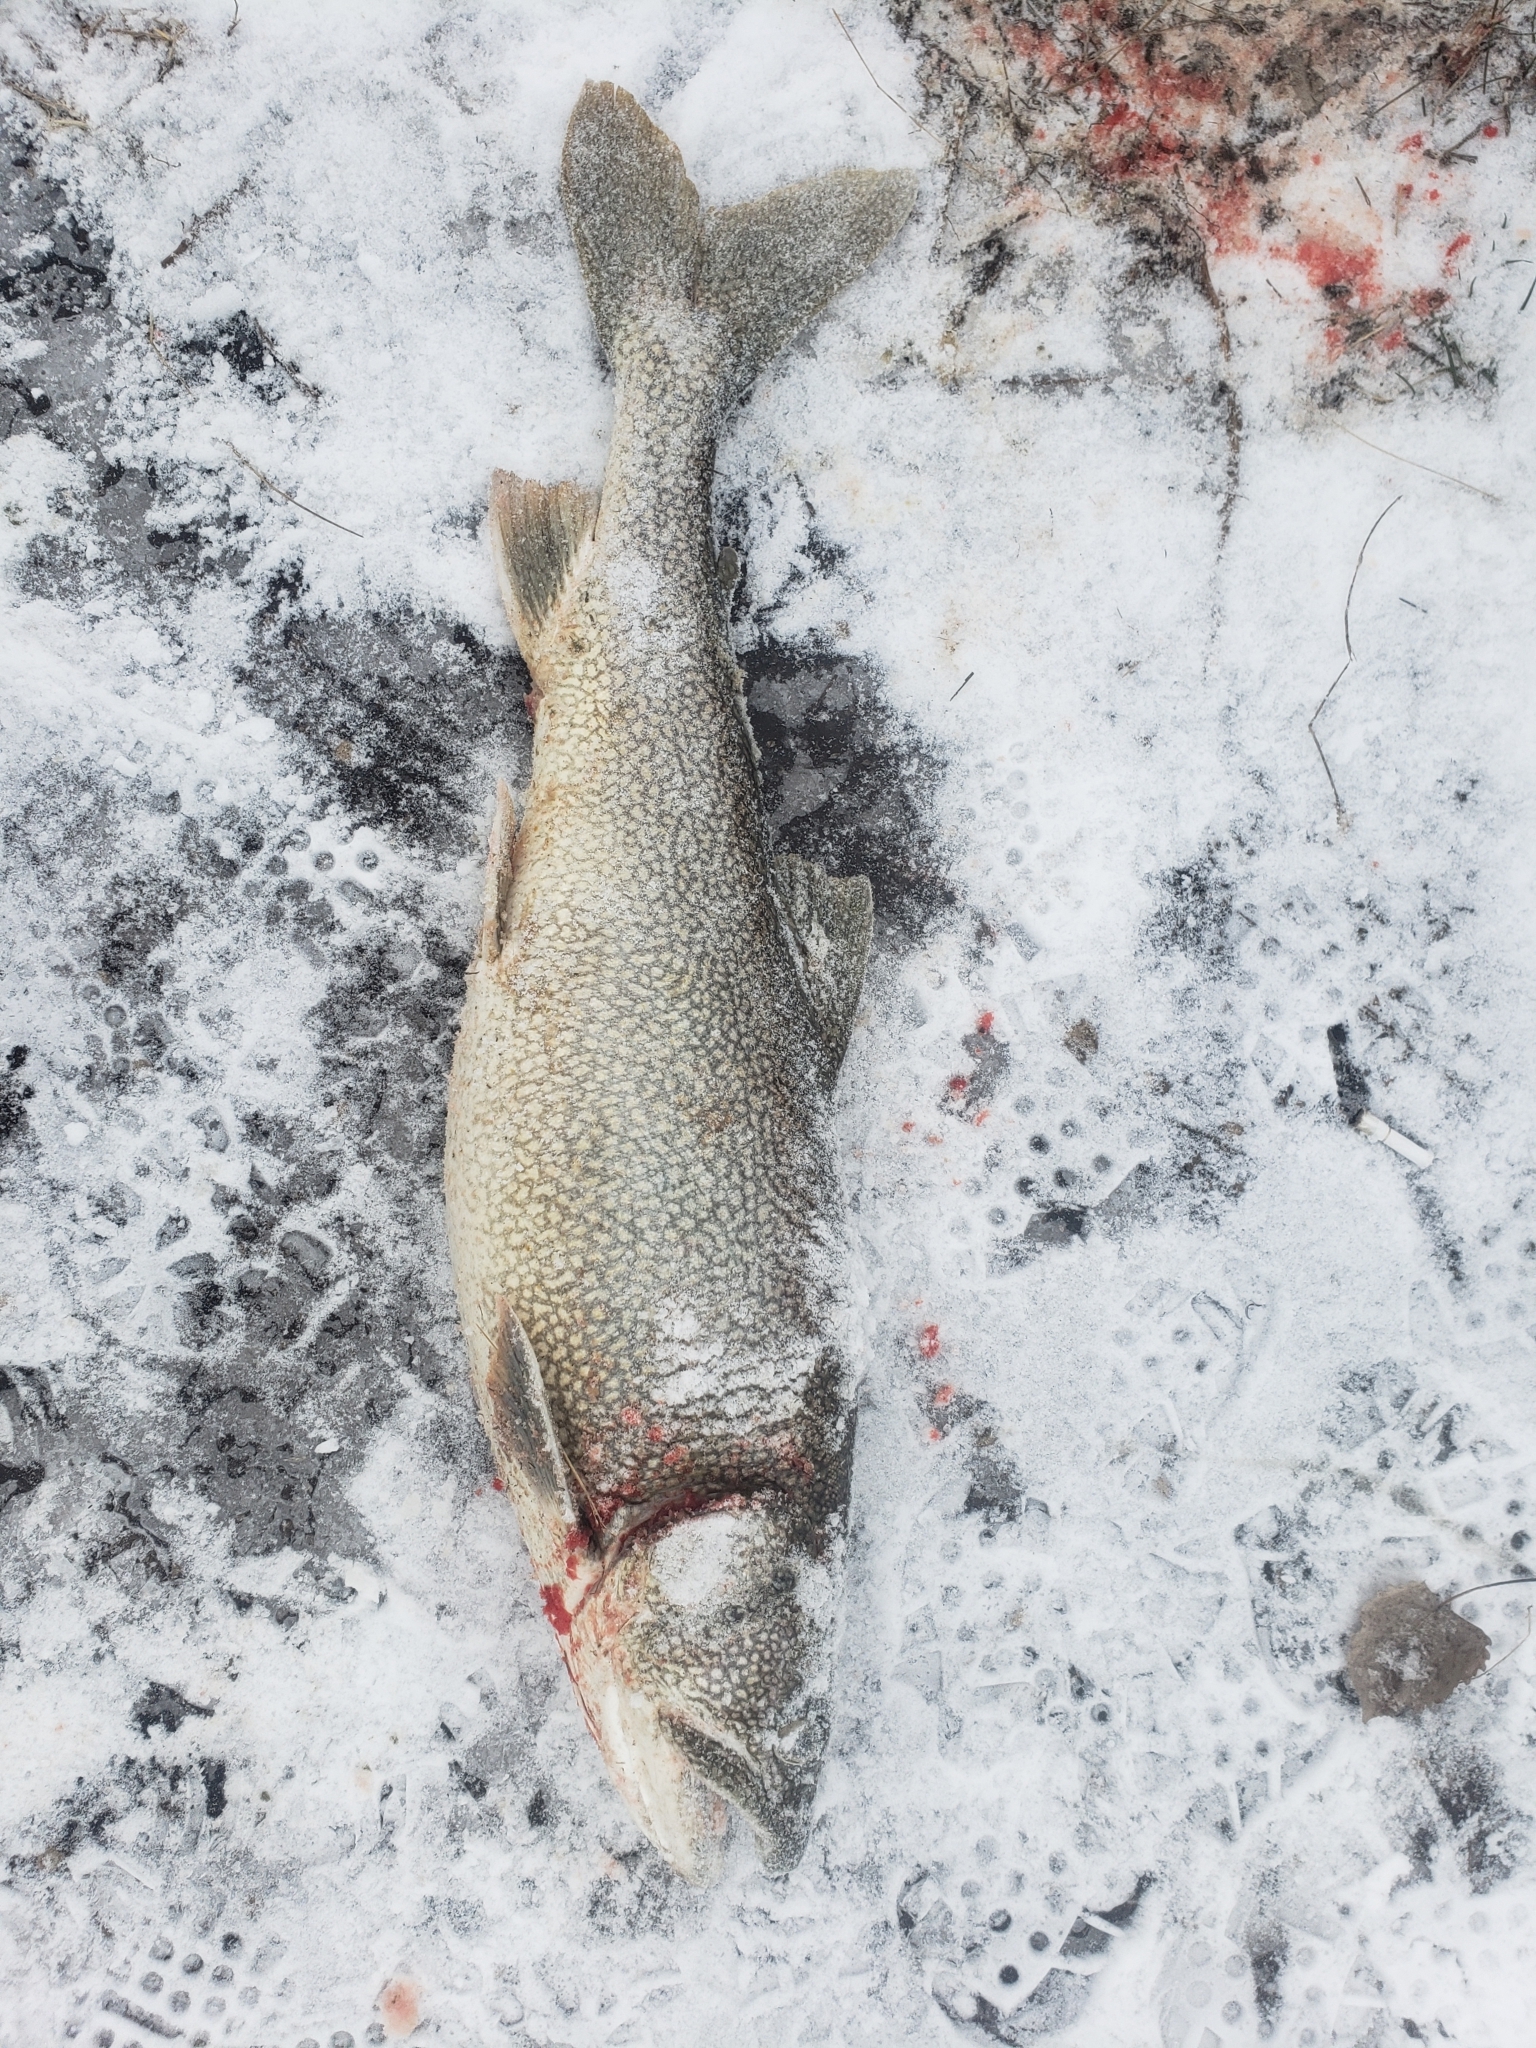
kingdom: Animalia
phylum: Chordata
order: Salmoniformes
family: Salmonidae
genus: Salvelinus
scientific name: Salvelinus namaycush
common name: American lake charr
